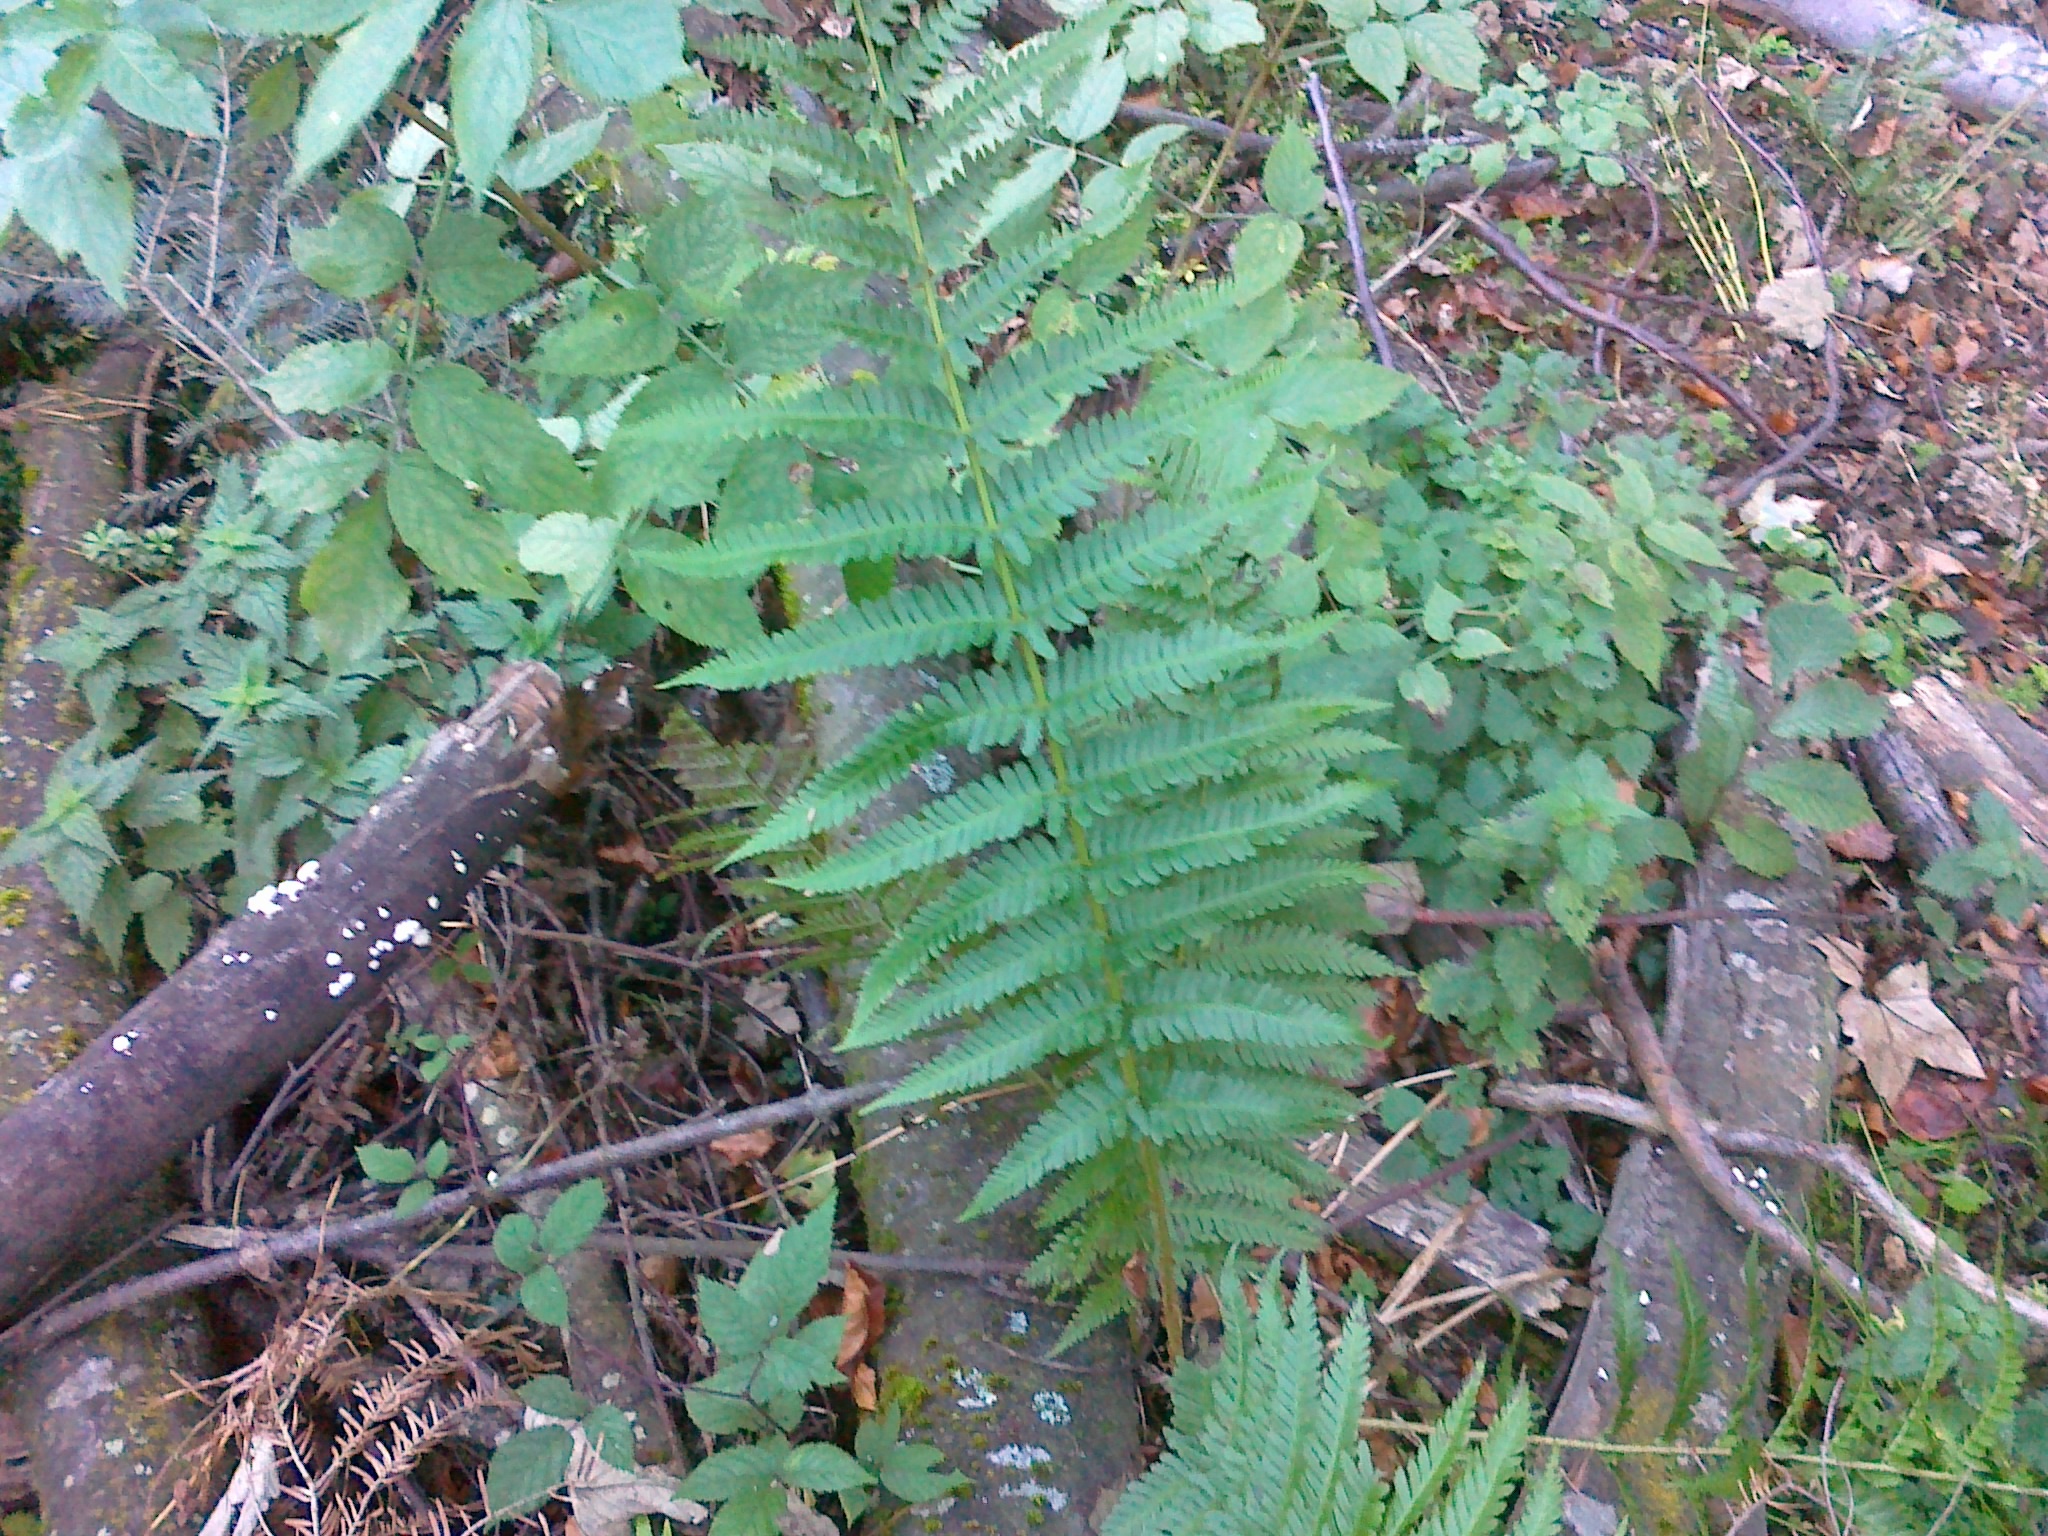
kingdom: Plantae
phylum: Tracheophyta
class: Polypodiopsida
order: Polypodiales
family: Dryopteridaceae
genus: Dryopteris
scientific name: Dryopteris filix-mas
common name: Male fern
